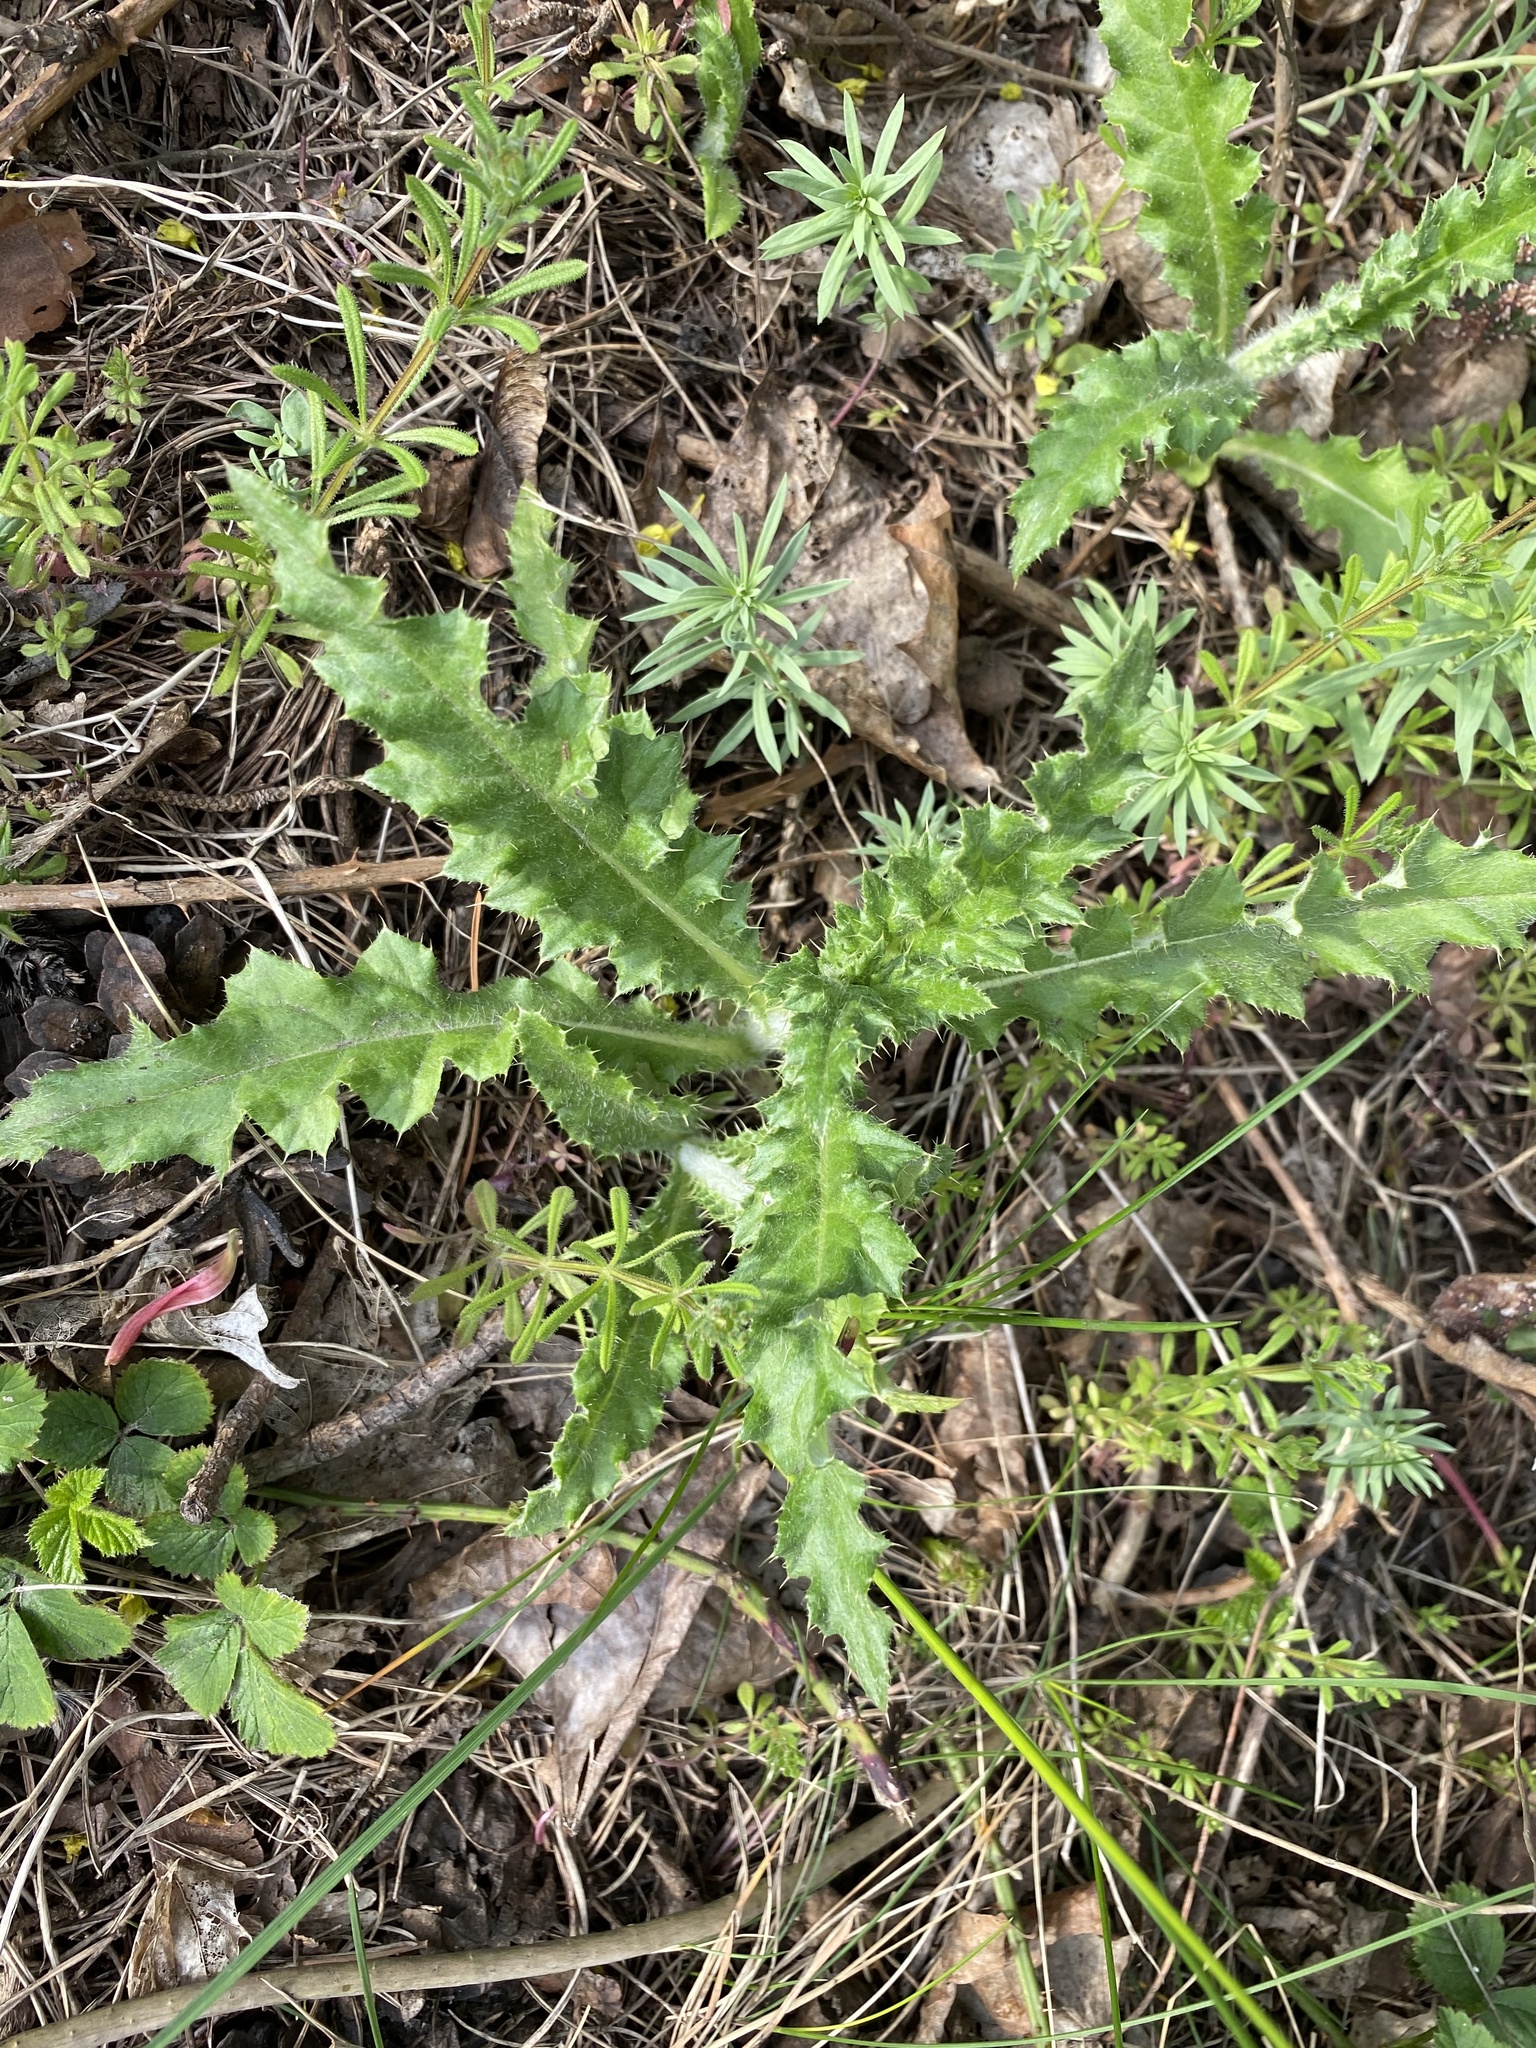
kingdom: Plantae
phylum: Tracheophyta
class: Magnoliopsida
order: Asterales
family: Asteraceae
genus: Cirsium
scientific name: Cirsium arvense
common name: Creeping thistle
